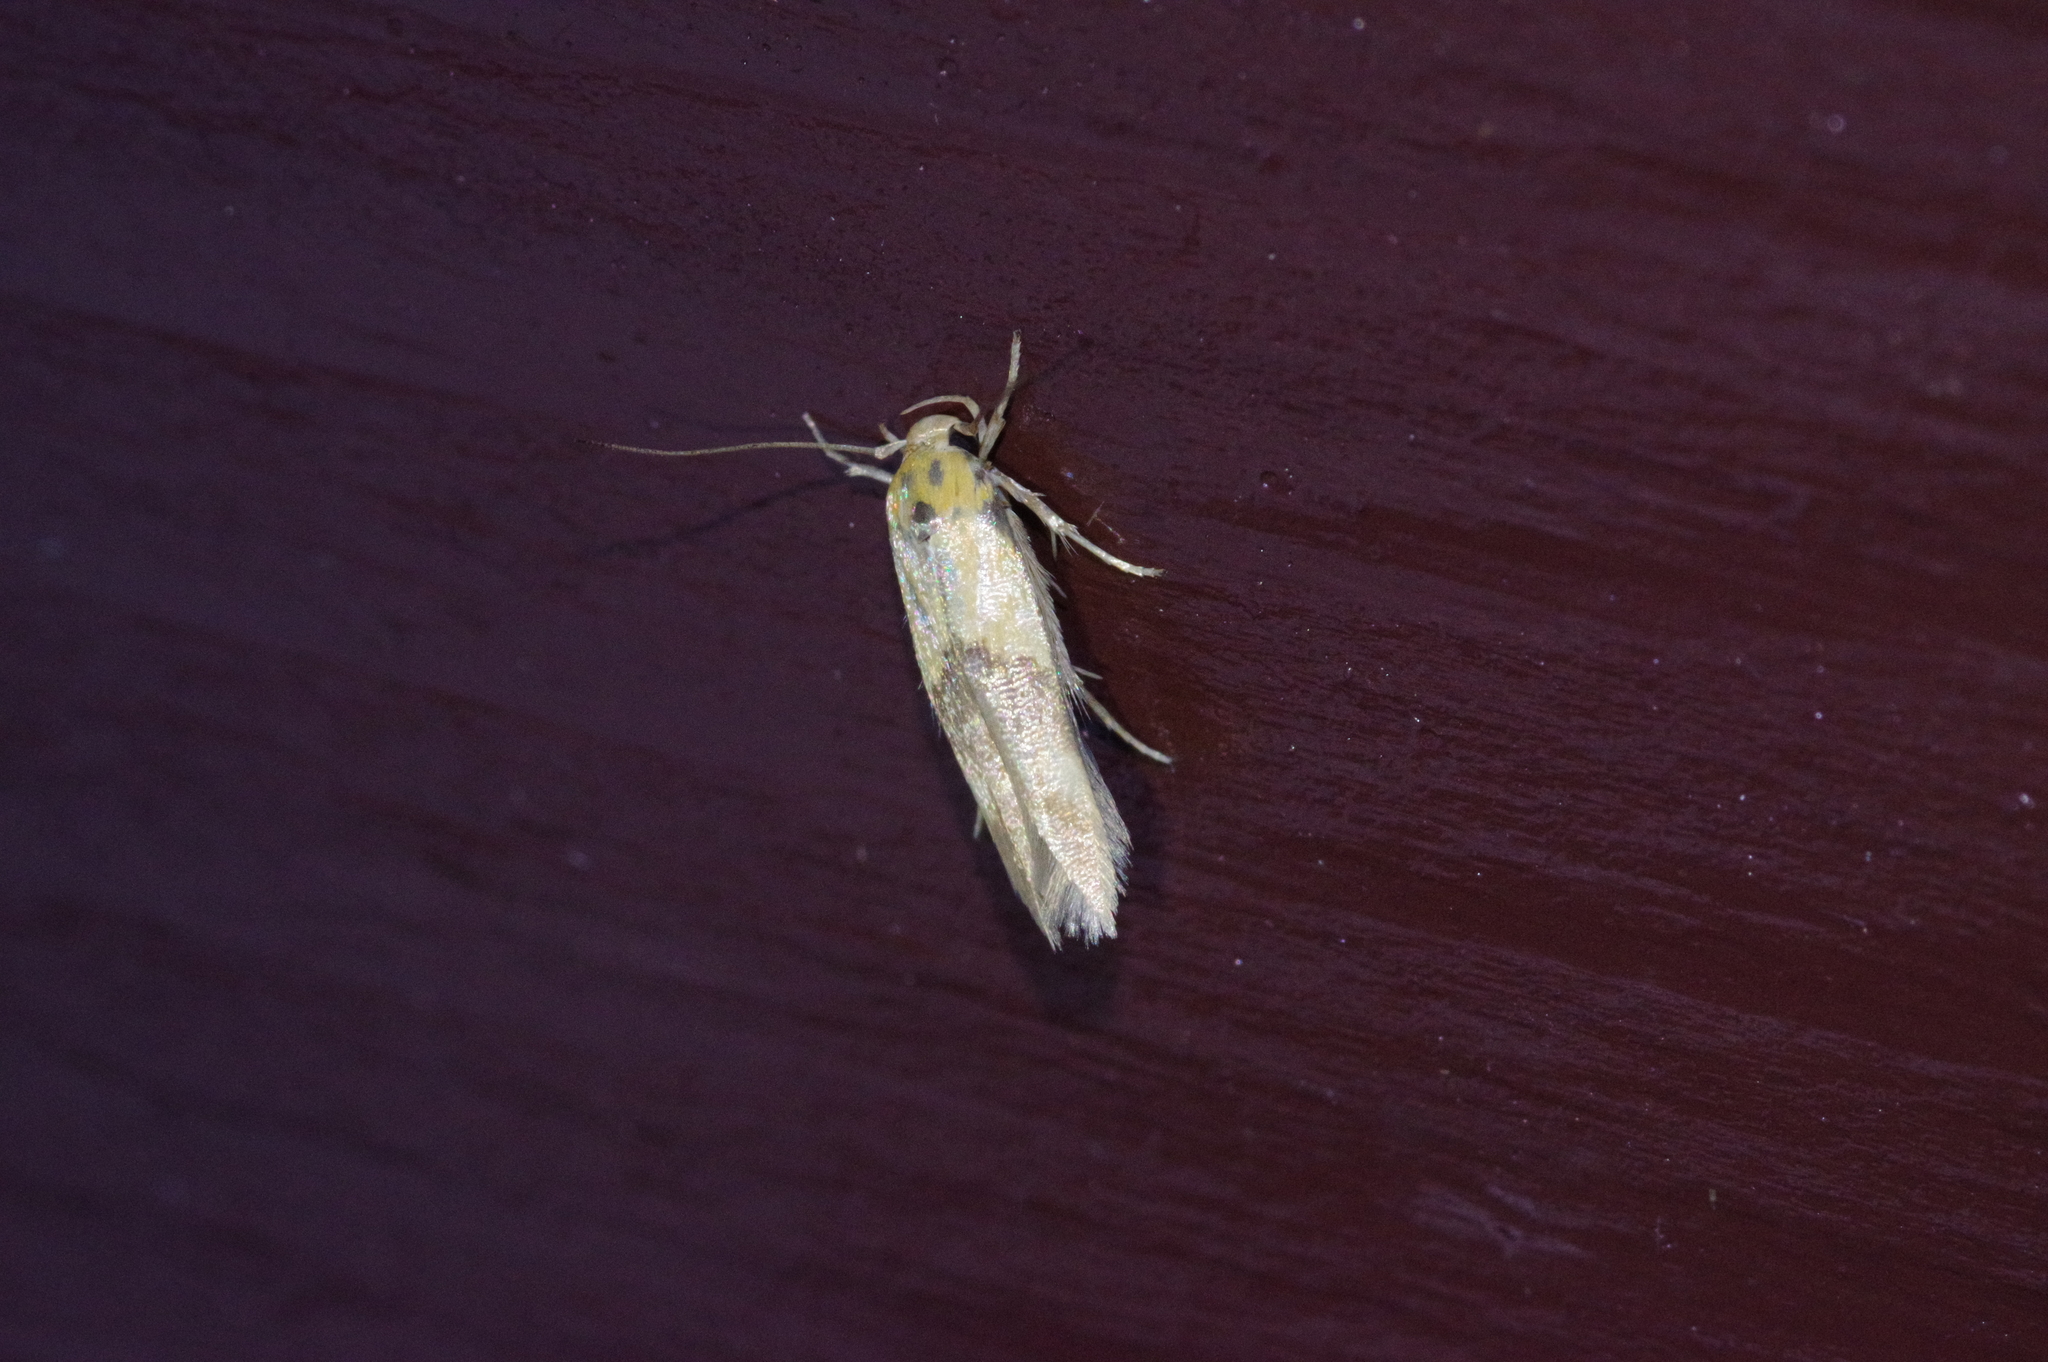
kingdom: Animalia
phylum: Arthropoda
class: Insecta
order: Lepidoptera
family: Stathmopodidae
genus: Stathmopoda
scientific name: Stathmopoda auriferella
